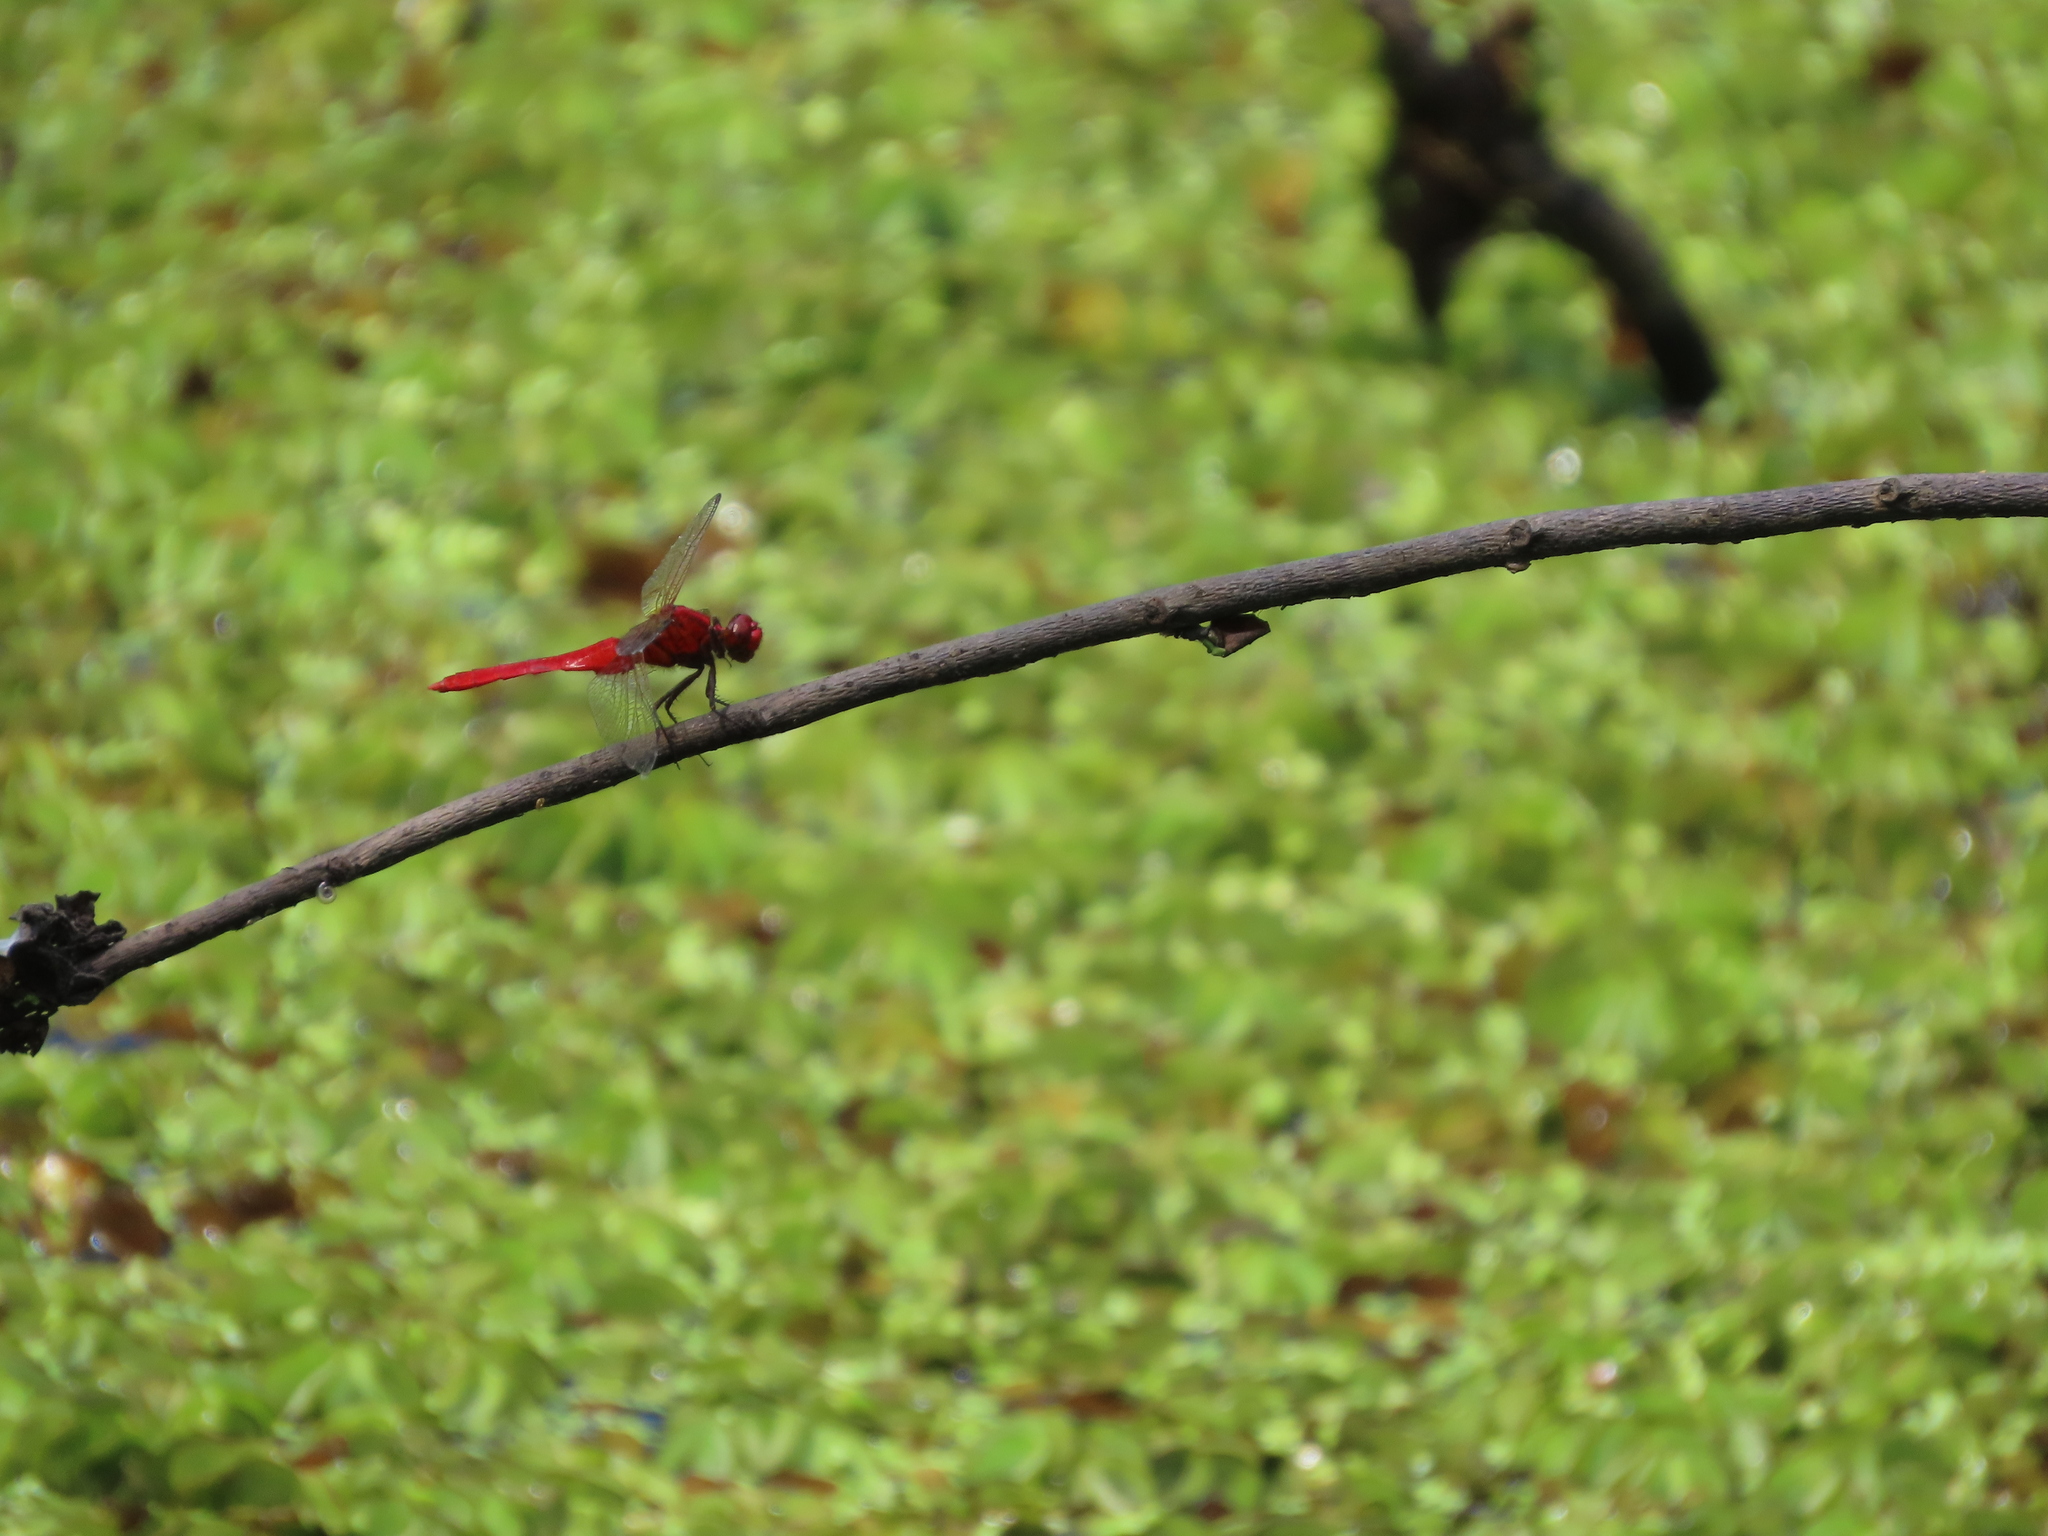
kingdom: Animalia
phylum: Arthropoda
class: Insecta
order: Odonata
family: Libellulidae
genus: Rhodothemis
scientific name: Rhodothemis rufa
